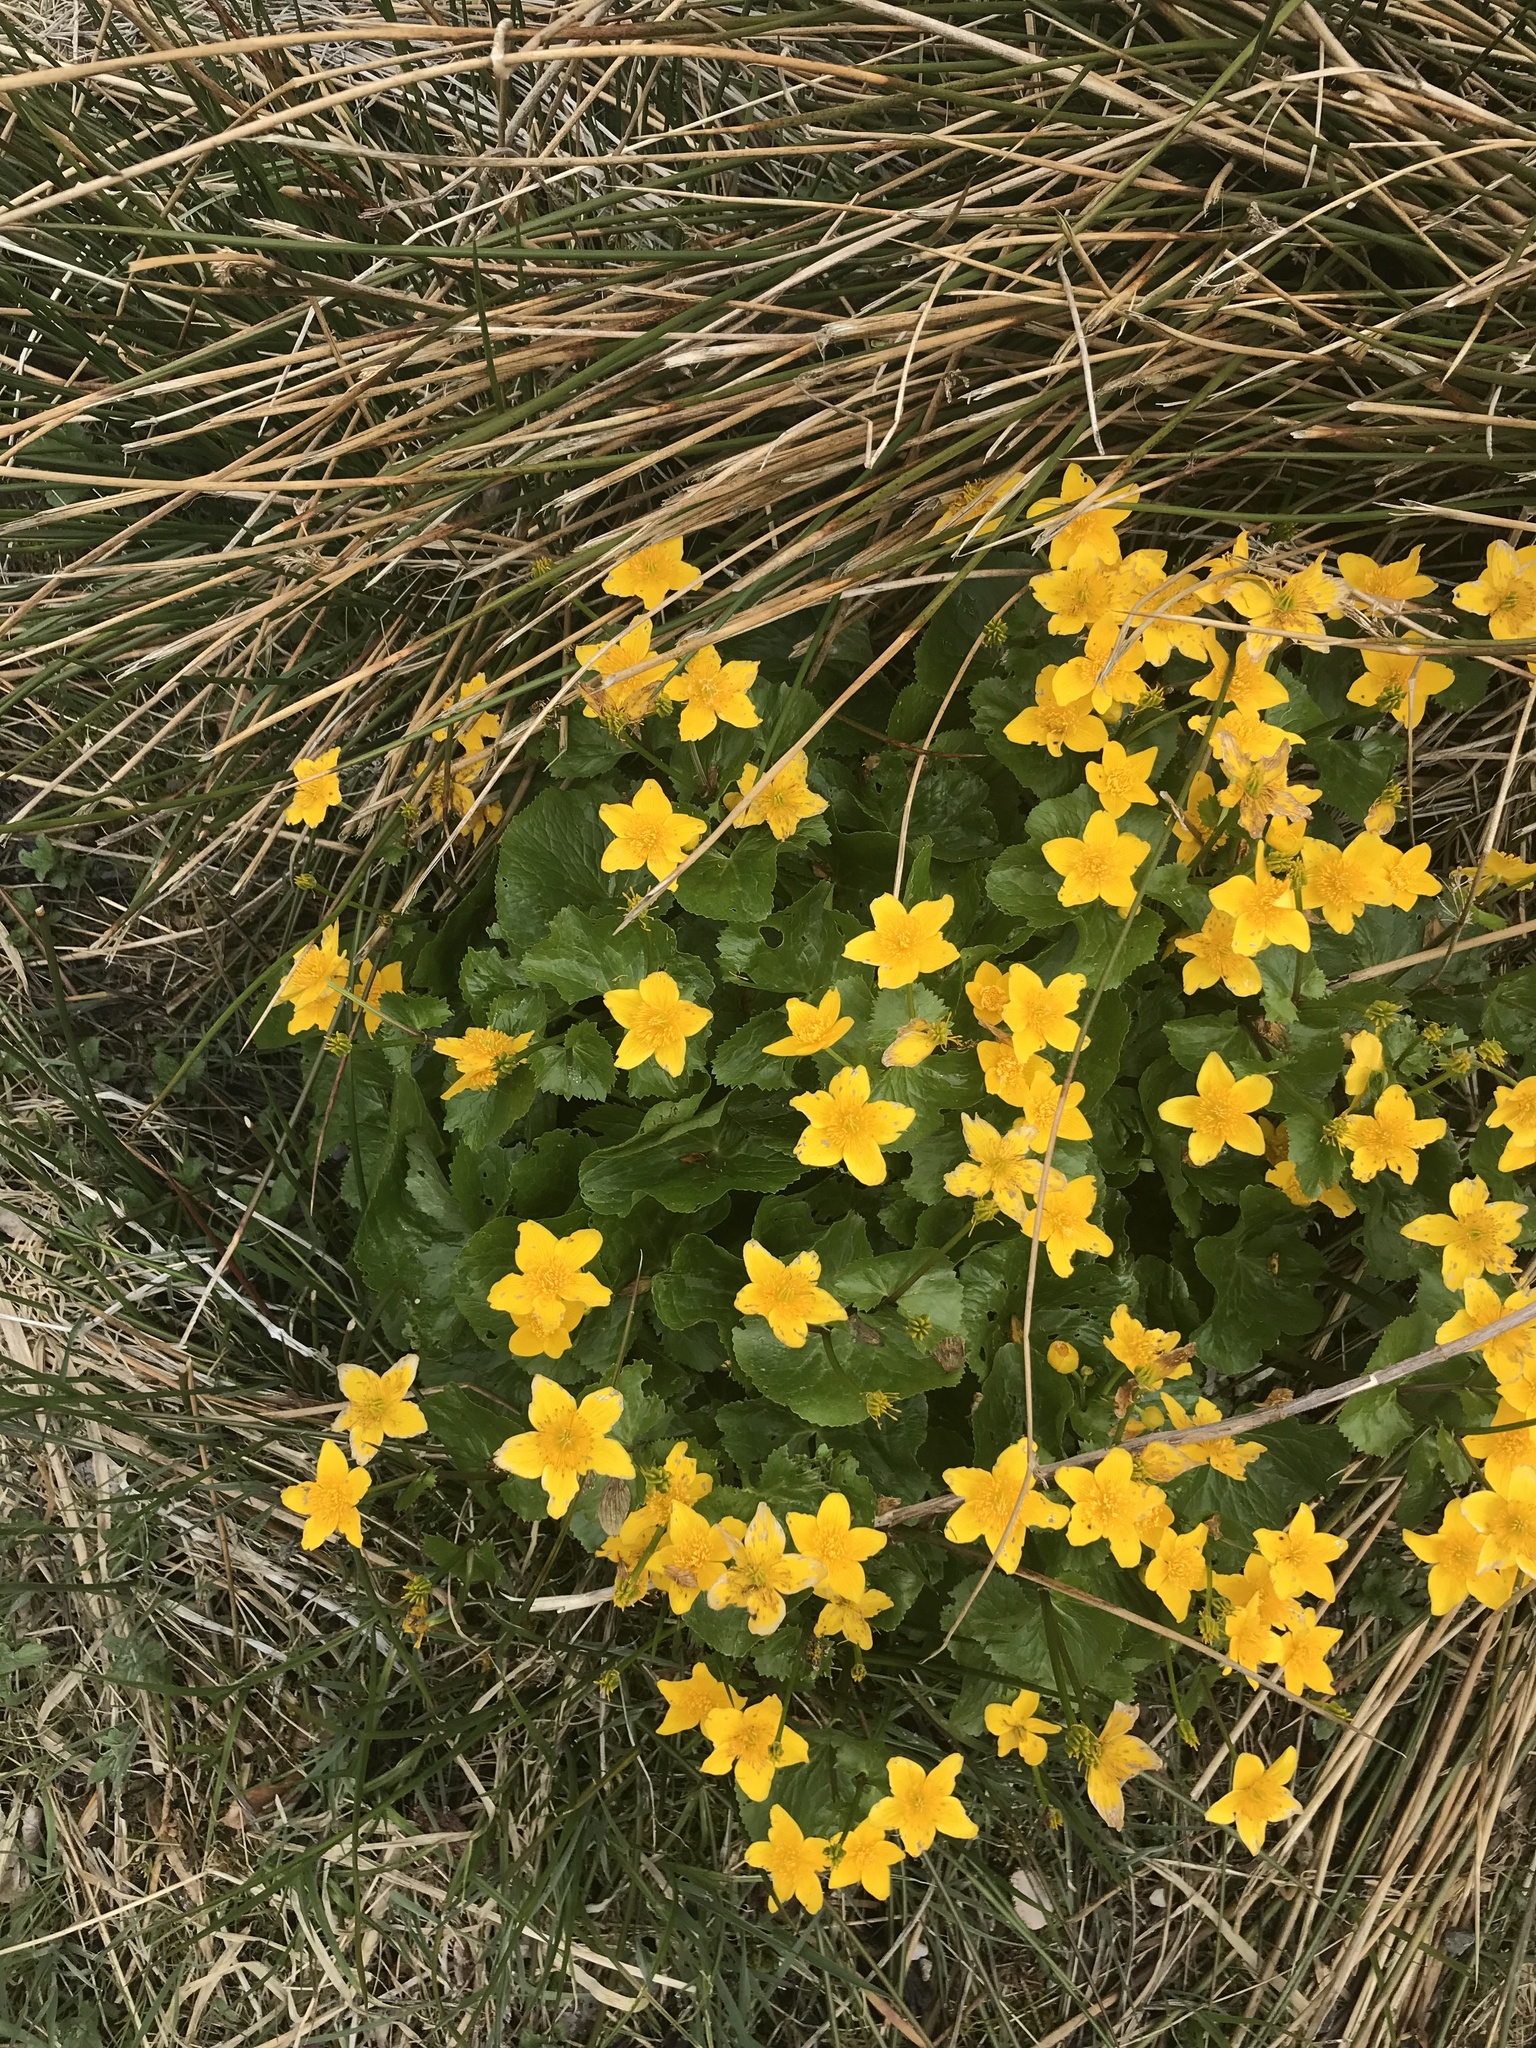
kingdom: Plantae
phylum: Tracheophyta
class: Magnoliopsida
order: Ranunculales
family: Ranunculaceae
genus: Caltha
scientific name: Caltha palustris
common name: Marsh marigold
